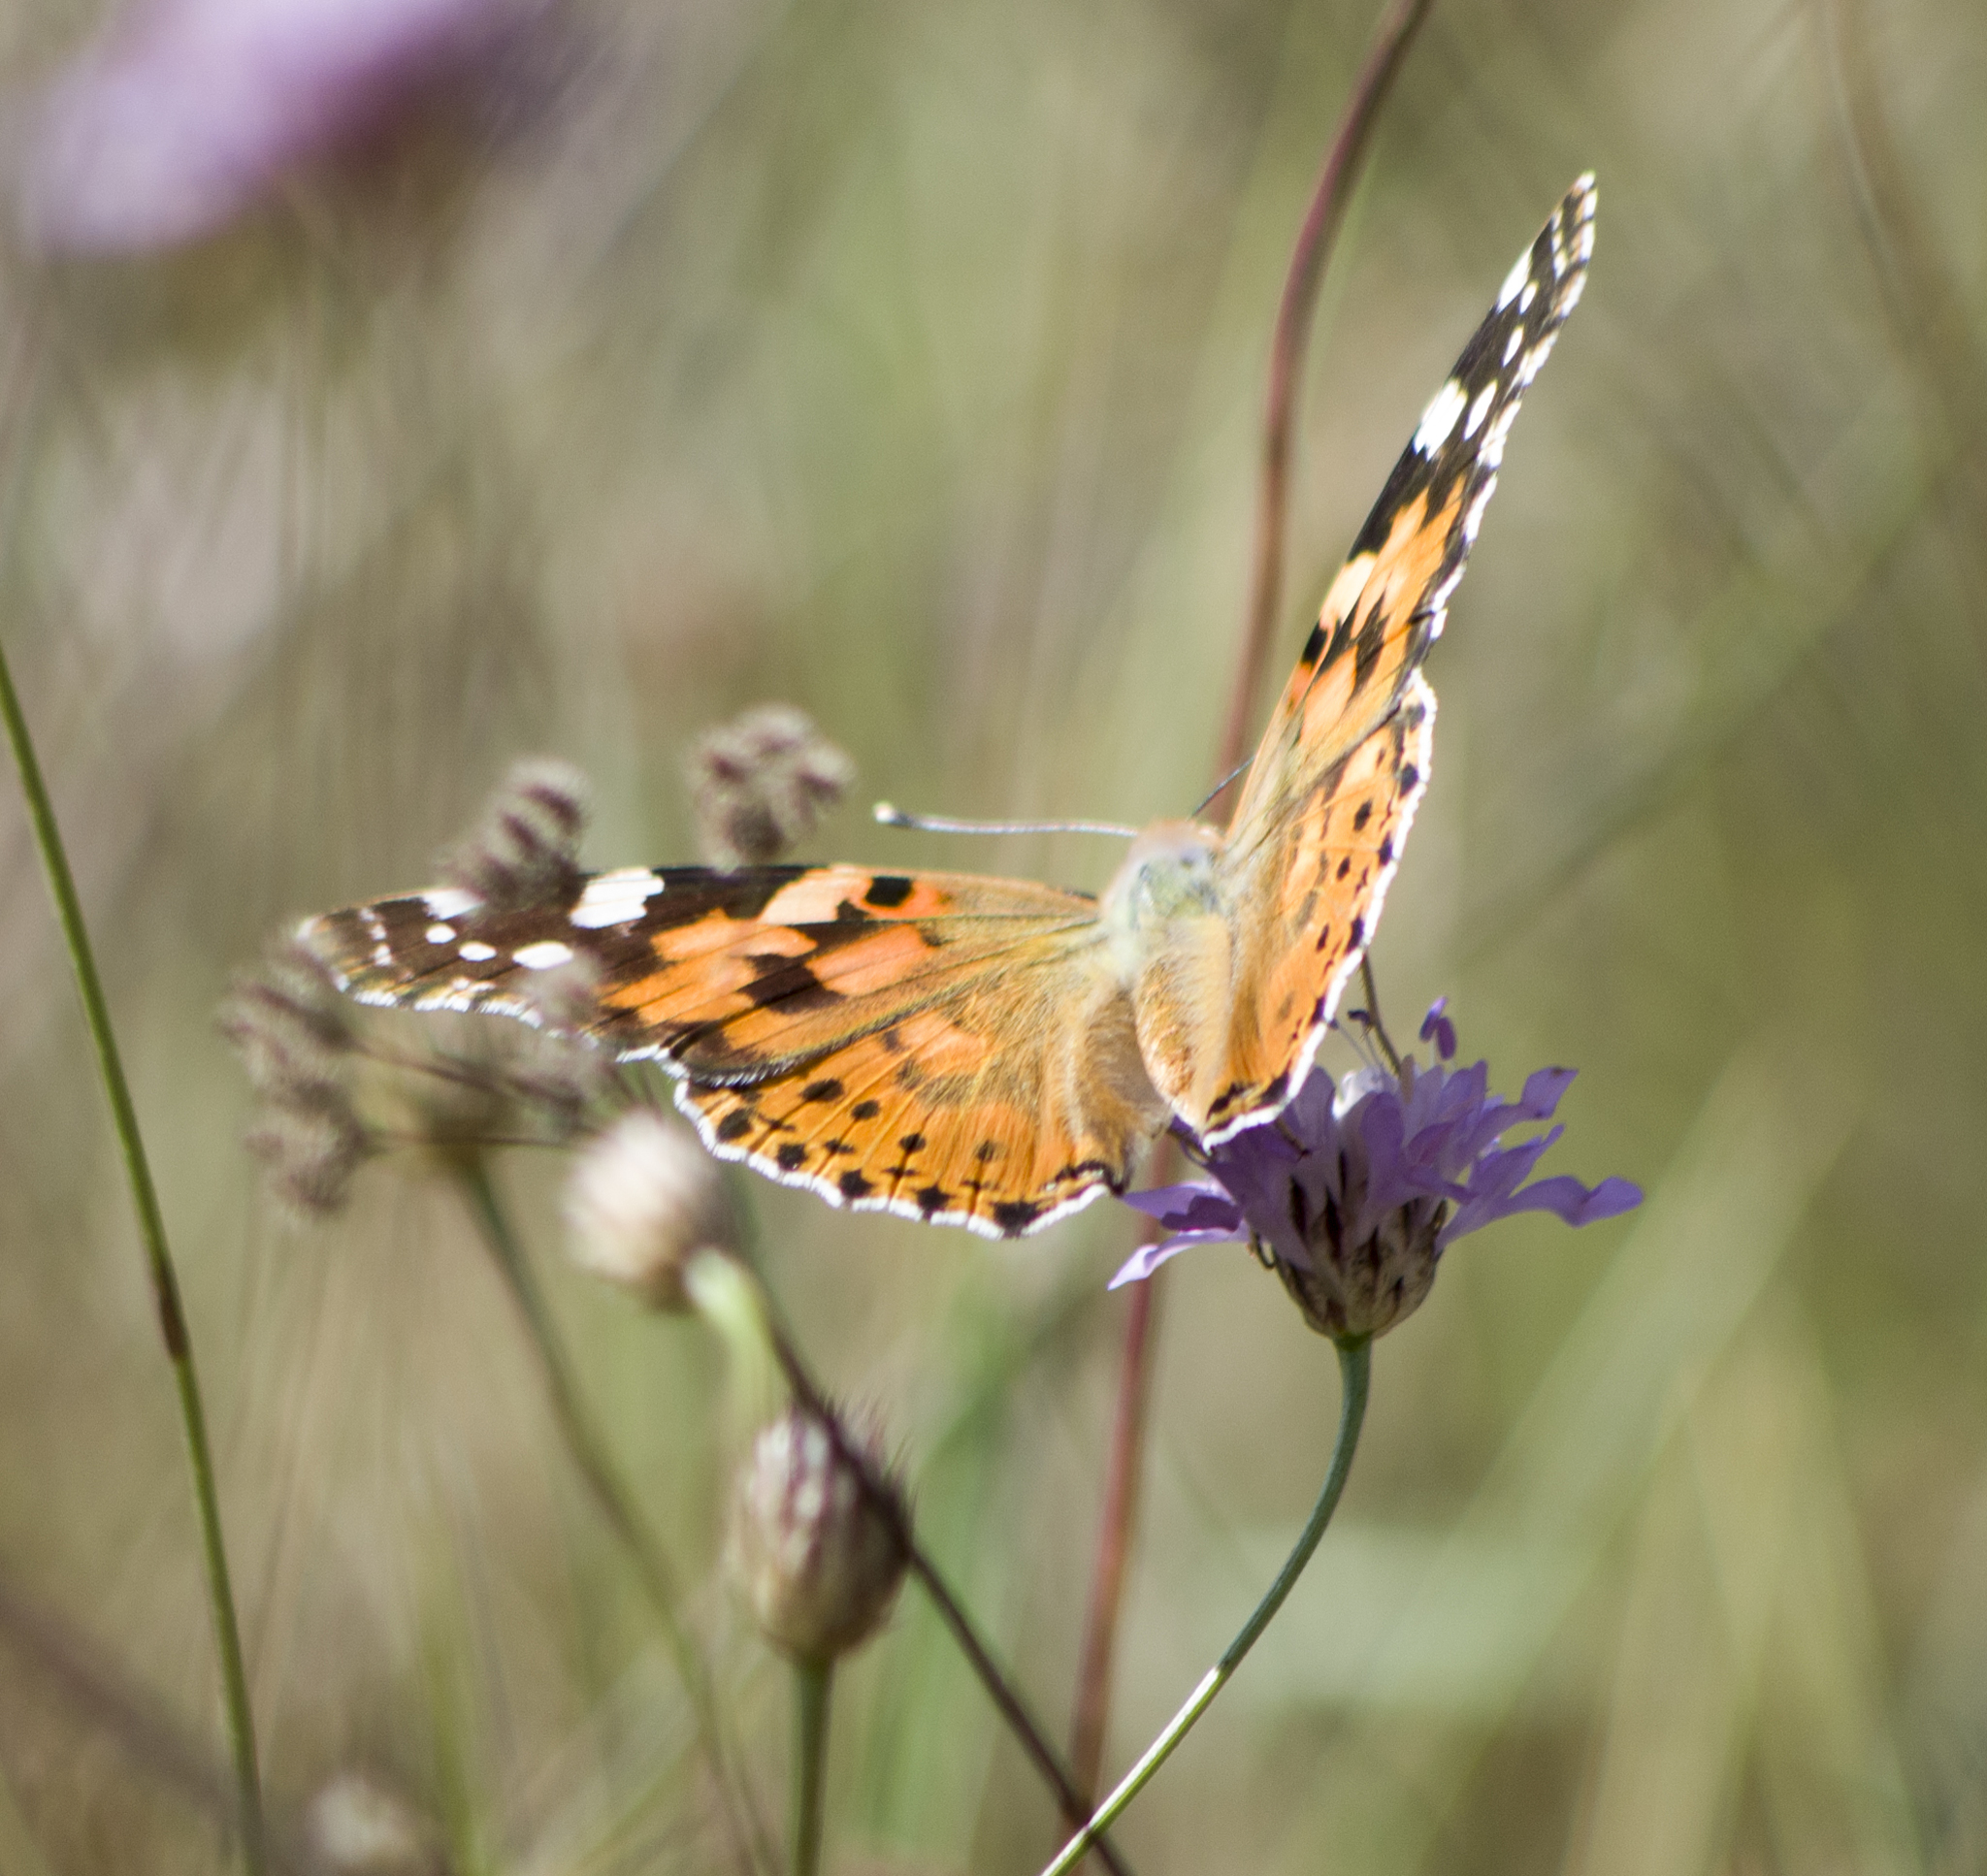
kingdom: Animalia
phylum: Arthropoda
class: Insecta
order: Lepidoptera
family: Nymphalidae
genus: Vanessa
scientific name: Vanessa cardui
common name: Painted lady
